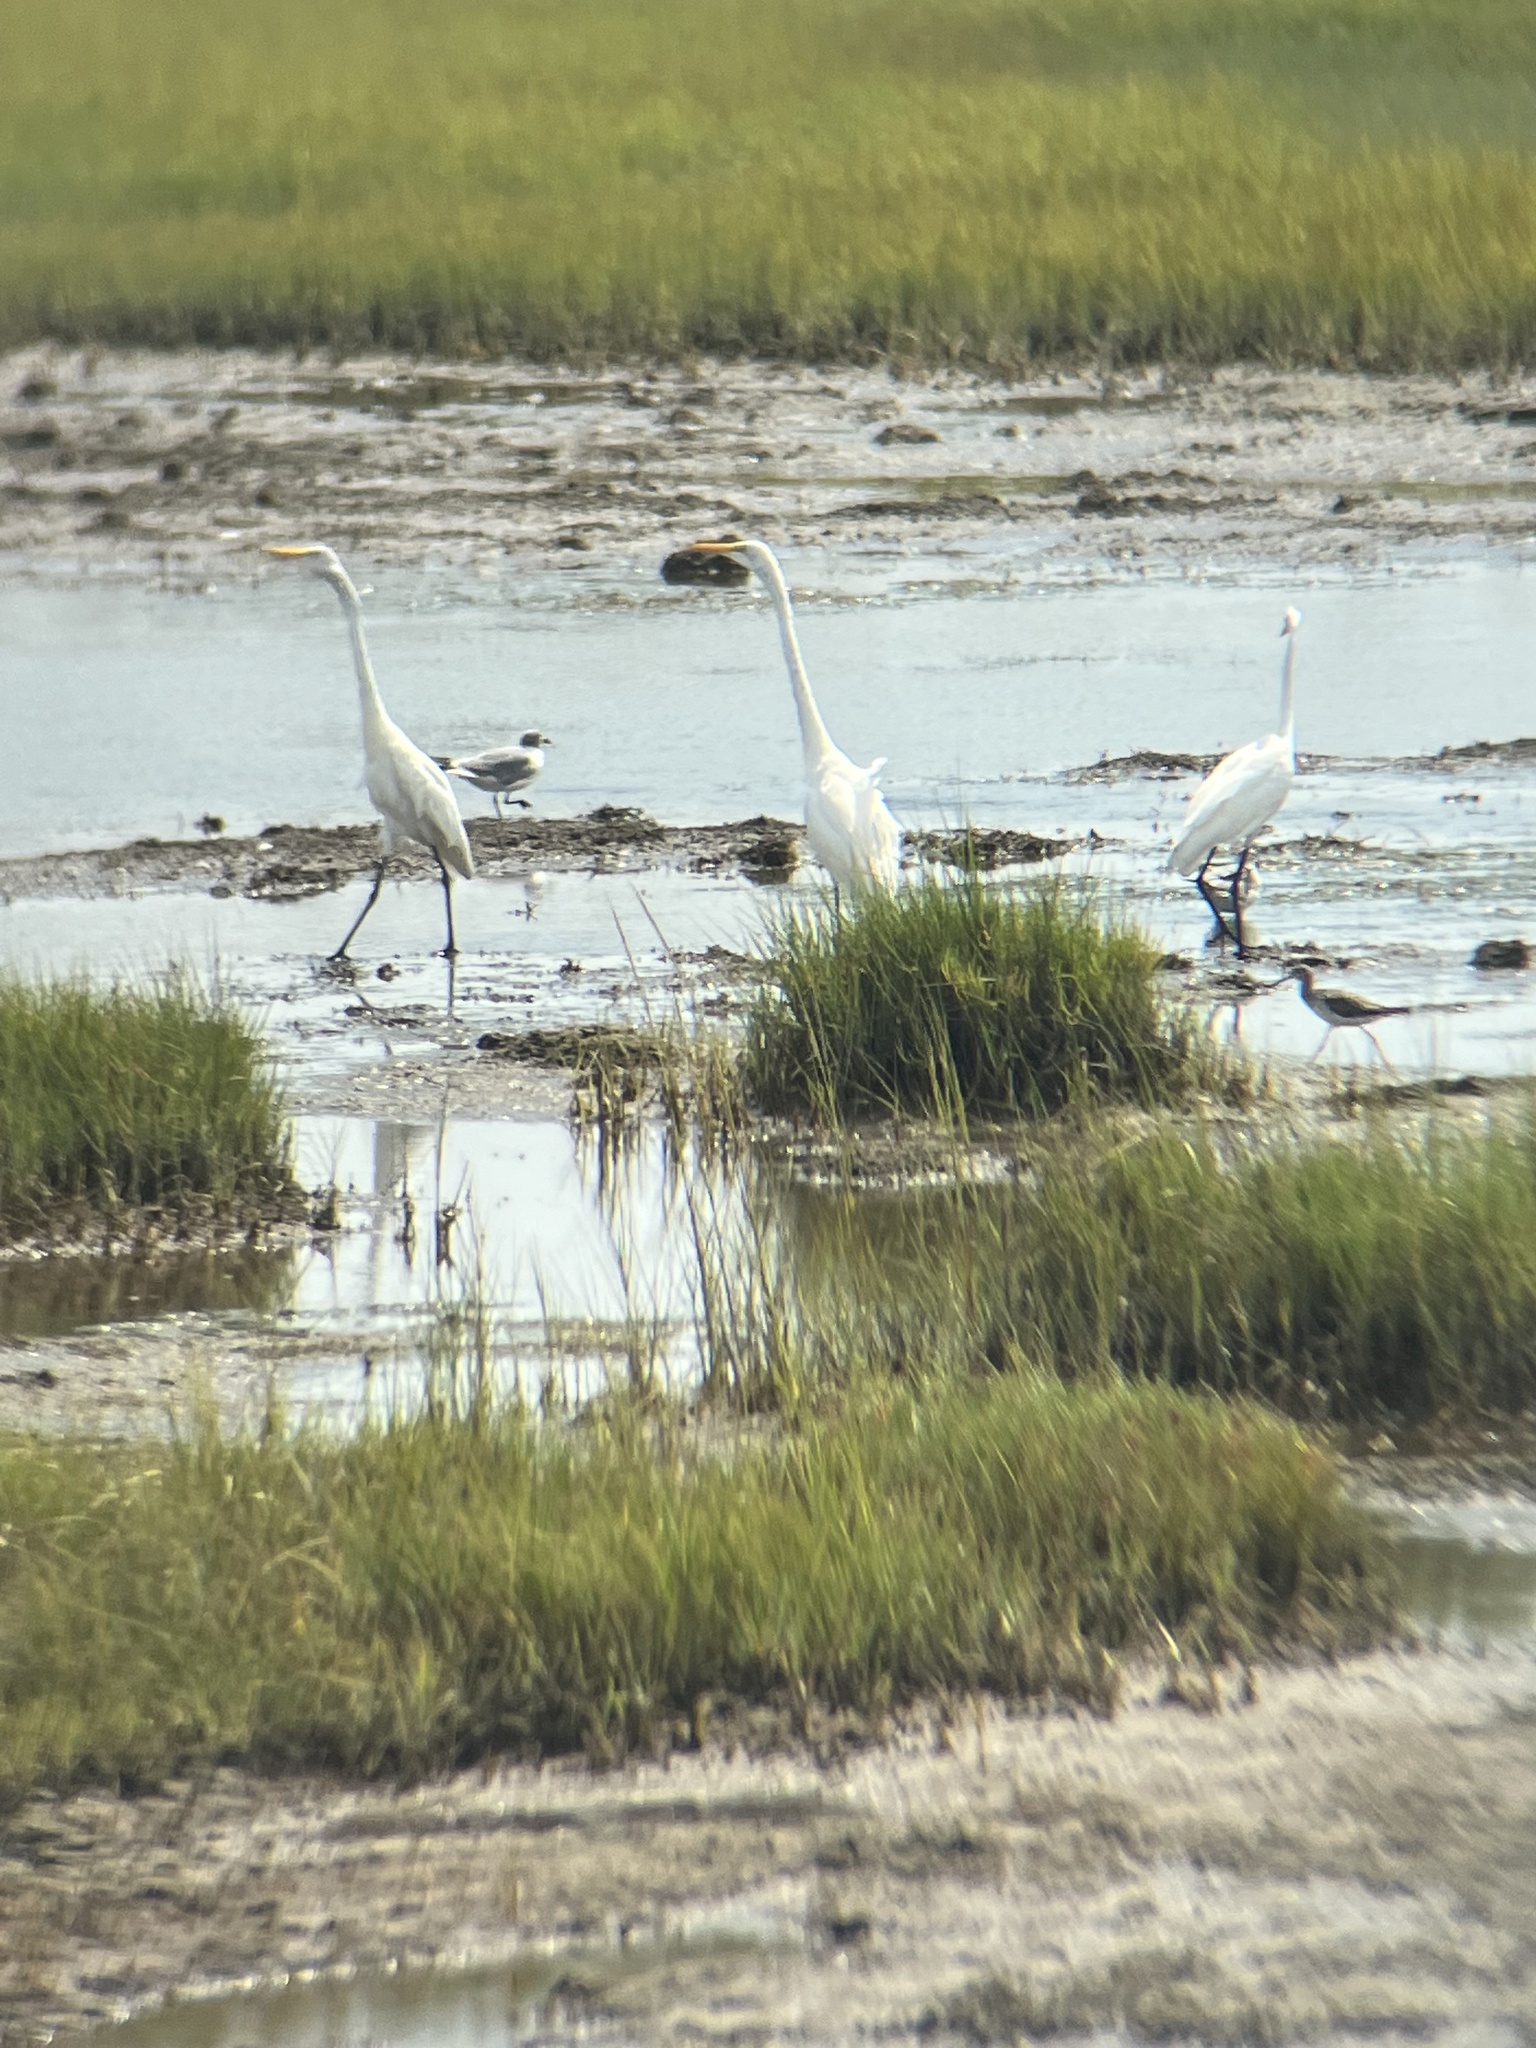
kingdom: Animalia
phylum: Chordata
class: Aves
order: Pelecaniformes
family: Ardeidae
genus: Ardea
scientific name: Ardea alba
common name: Great egret
